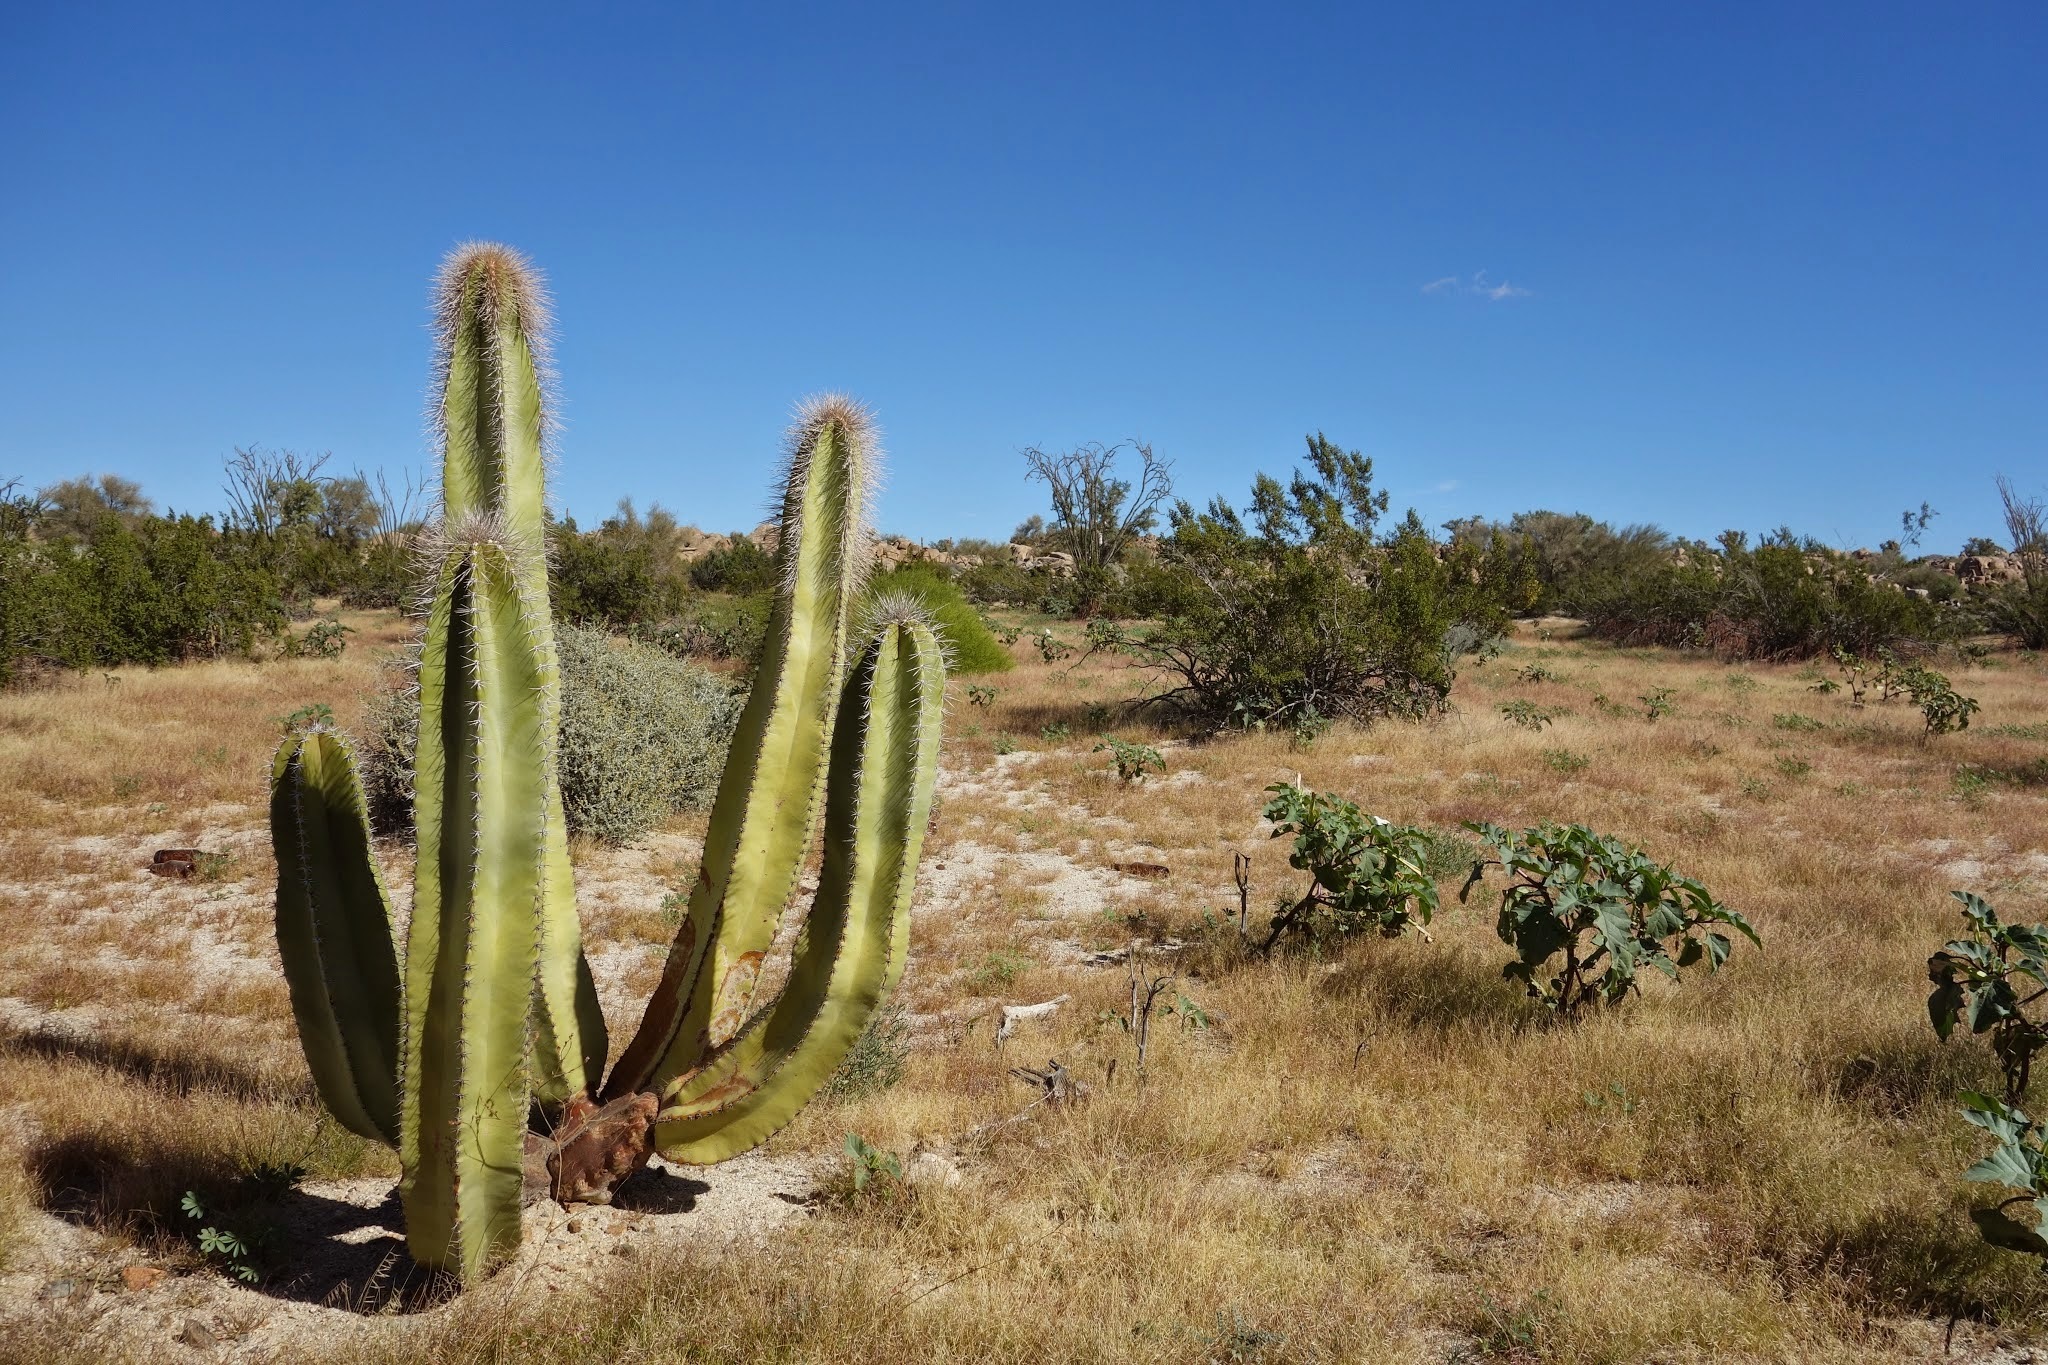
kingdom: Plantae
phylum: Tracheophyta
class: Magnoliopsida
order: Caryophyllales
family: Cactaceae
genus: Pachycereus
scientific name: Pachycereus schottii
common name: Senita cactus
